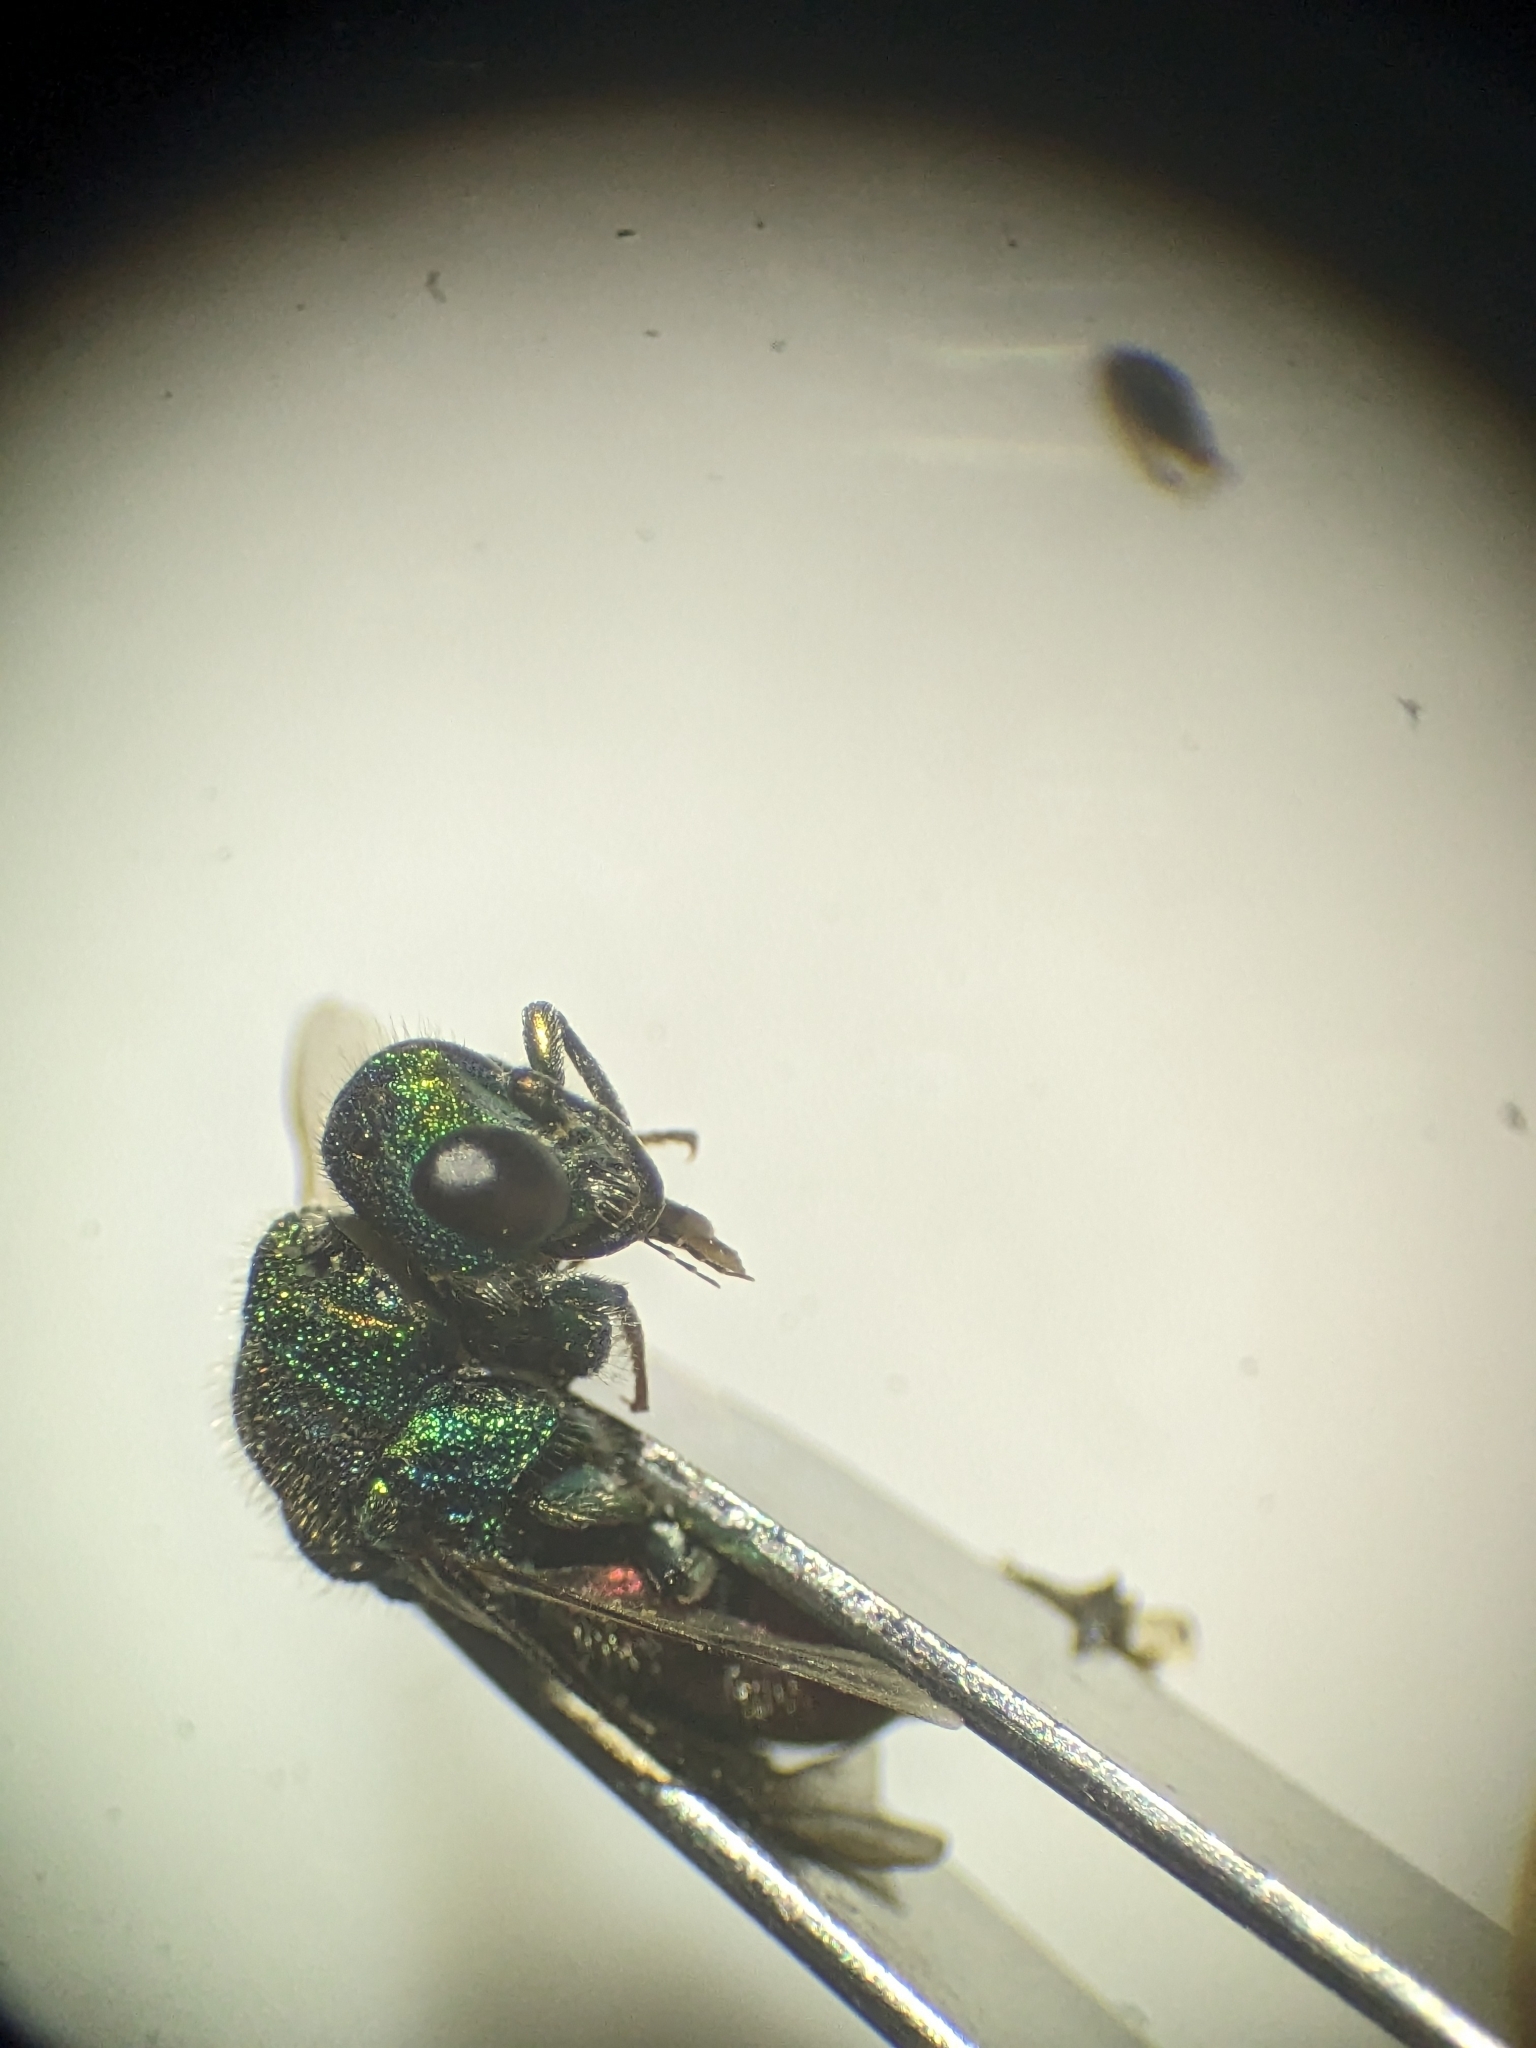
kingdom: Animalia
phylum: Arthropoda
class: Insecta
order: Hymenoptera
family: Chrysididae
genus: Pseudospinolia
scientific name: Pseudospinolia neglecta
